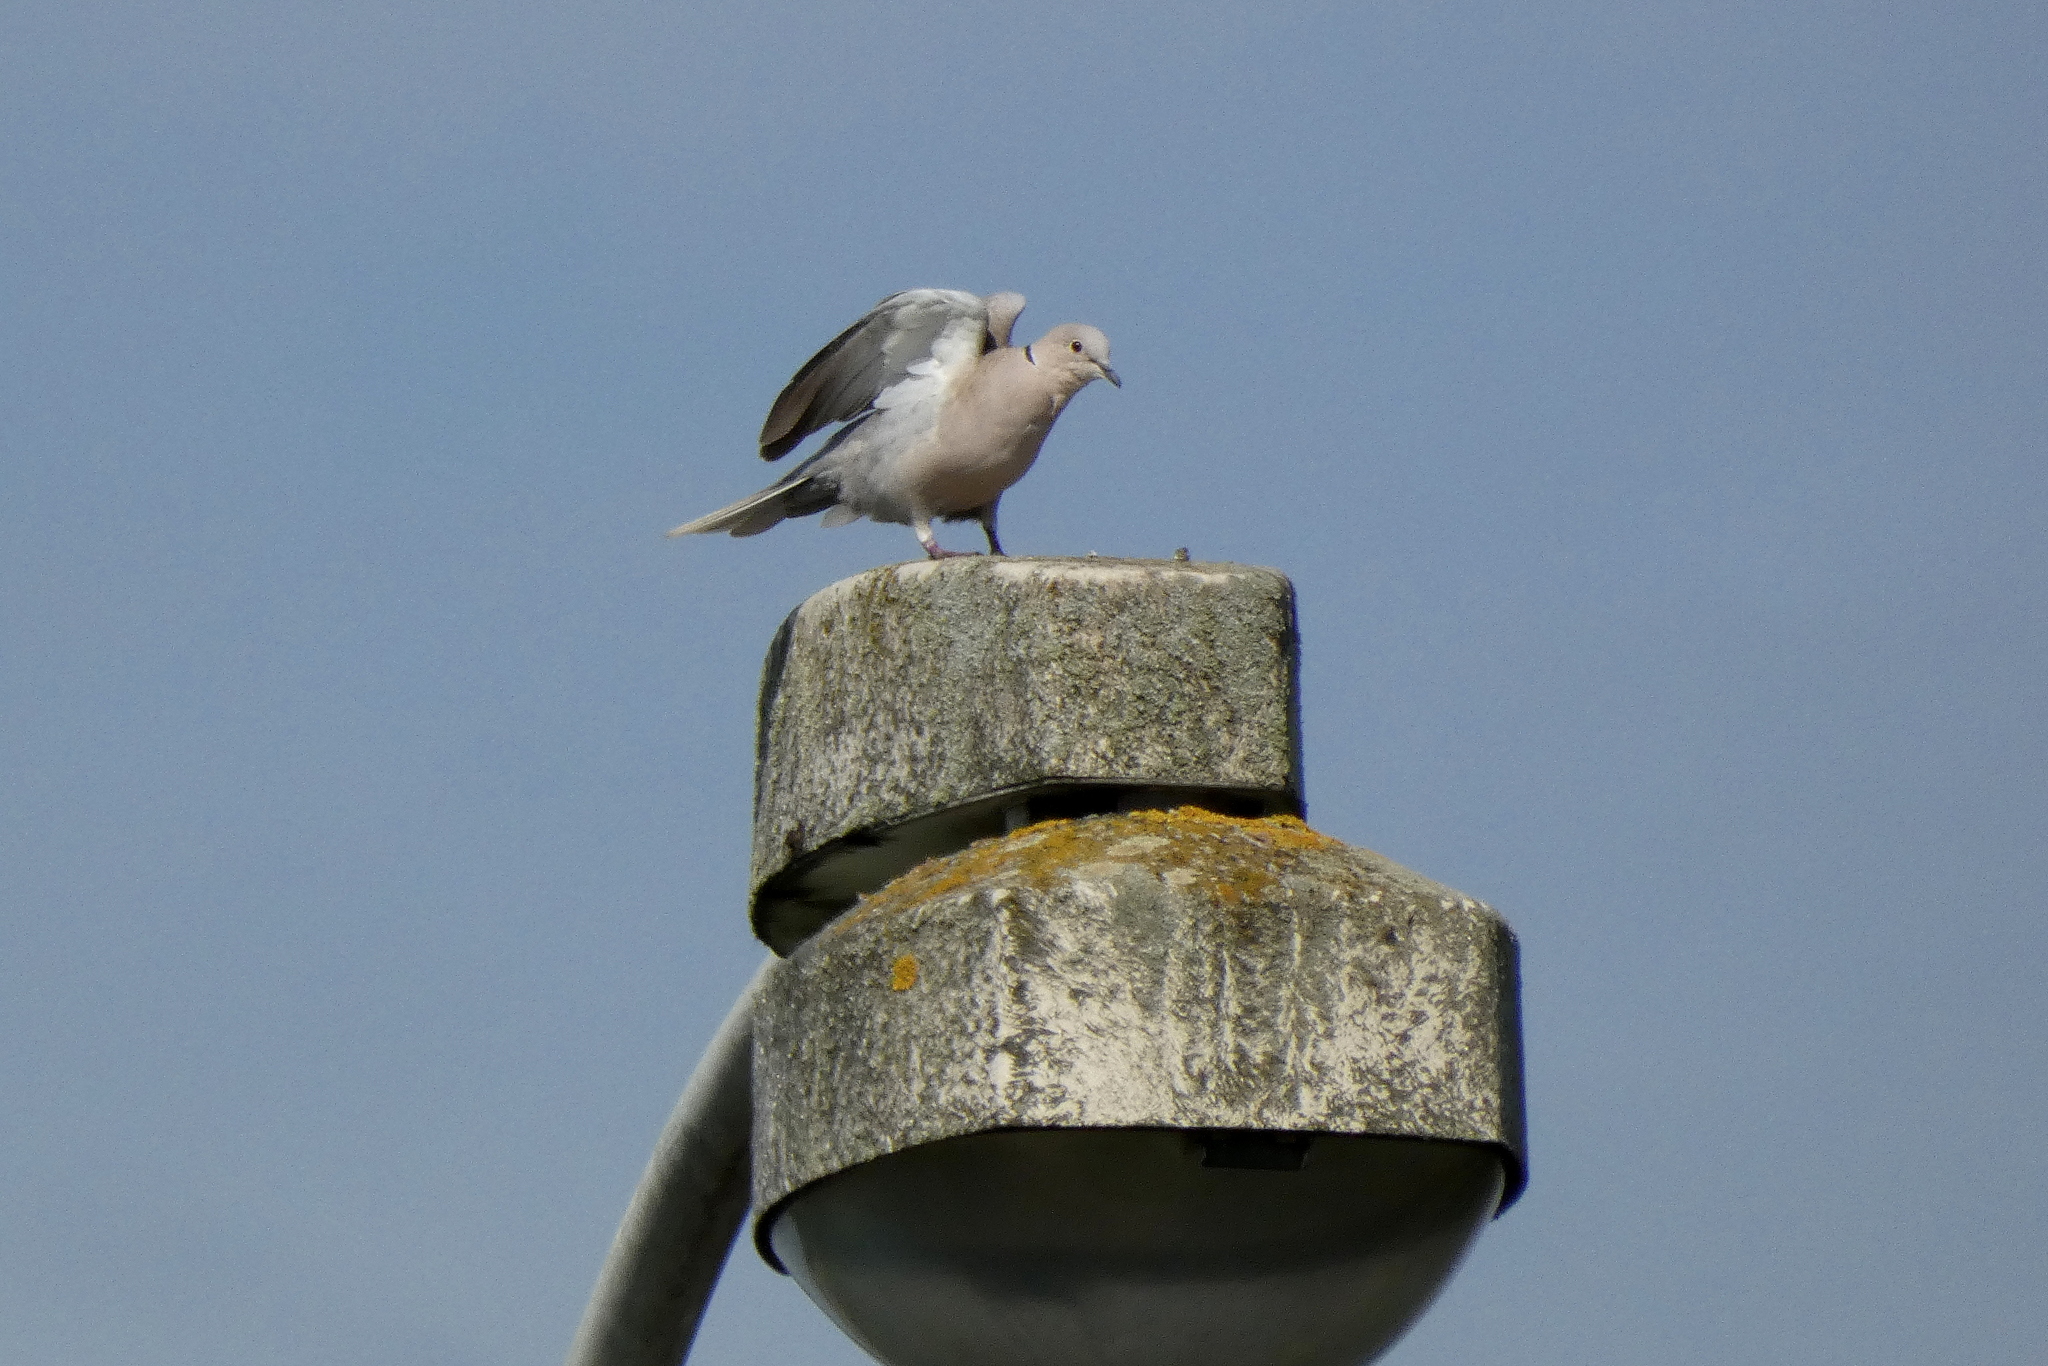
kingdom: Animalia
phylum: Chordata
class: Aves
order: Columbiformes
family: Columbidae
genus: Streptopelia
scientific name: Streptopelia decaocto
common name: Eurasian collared dove
